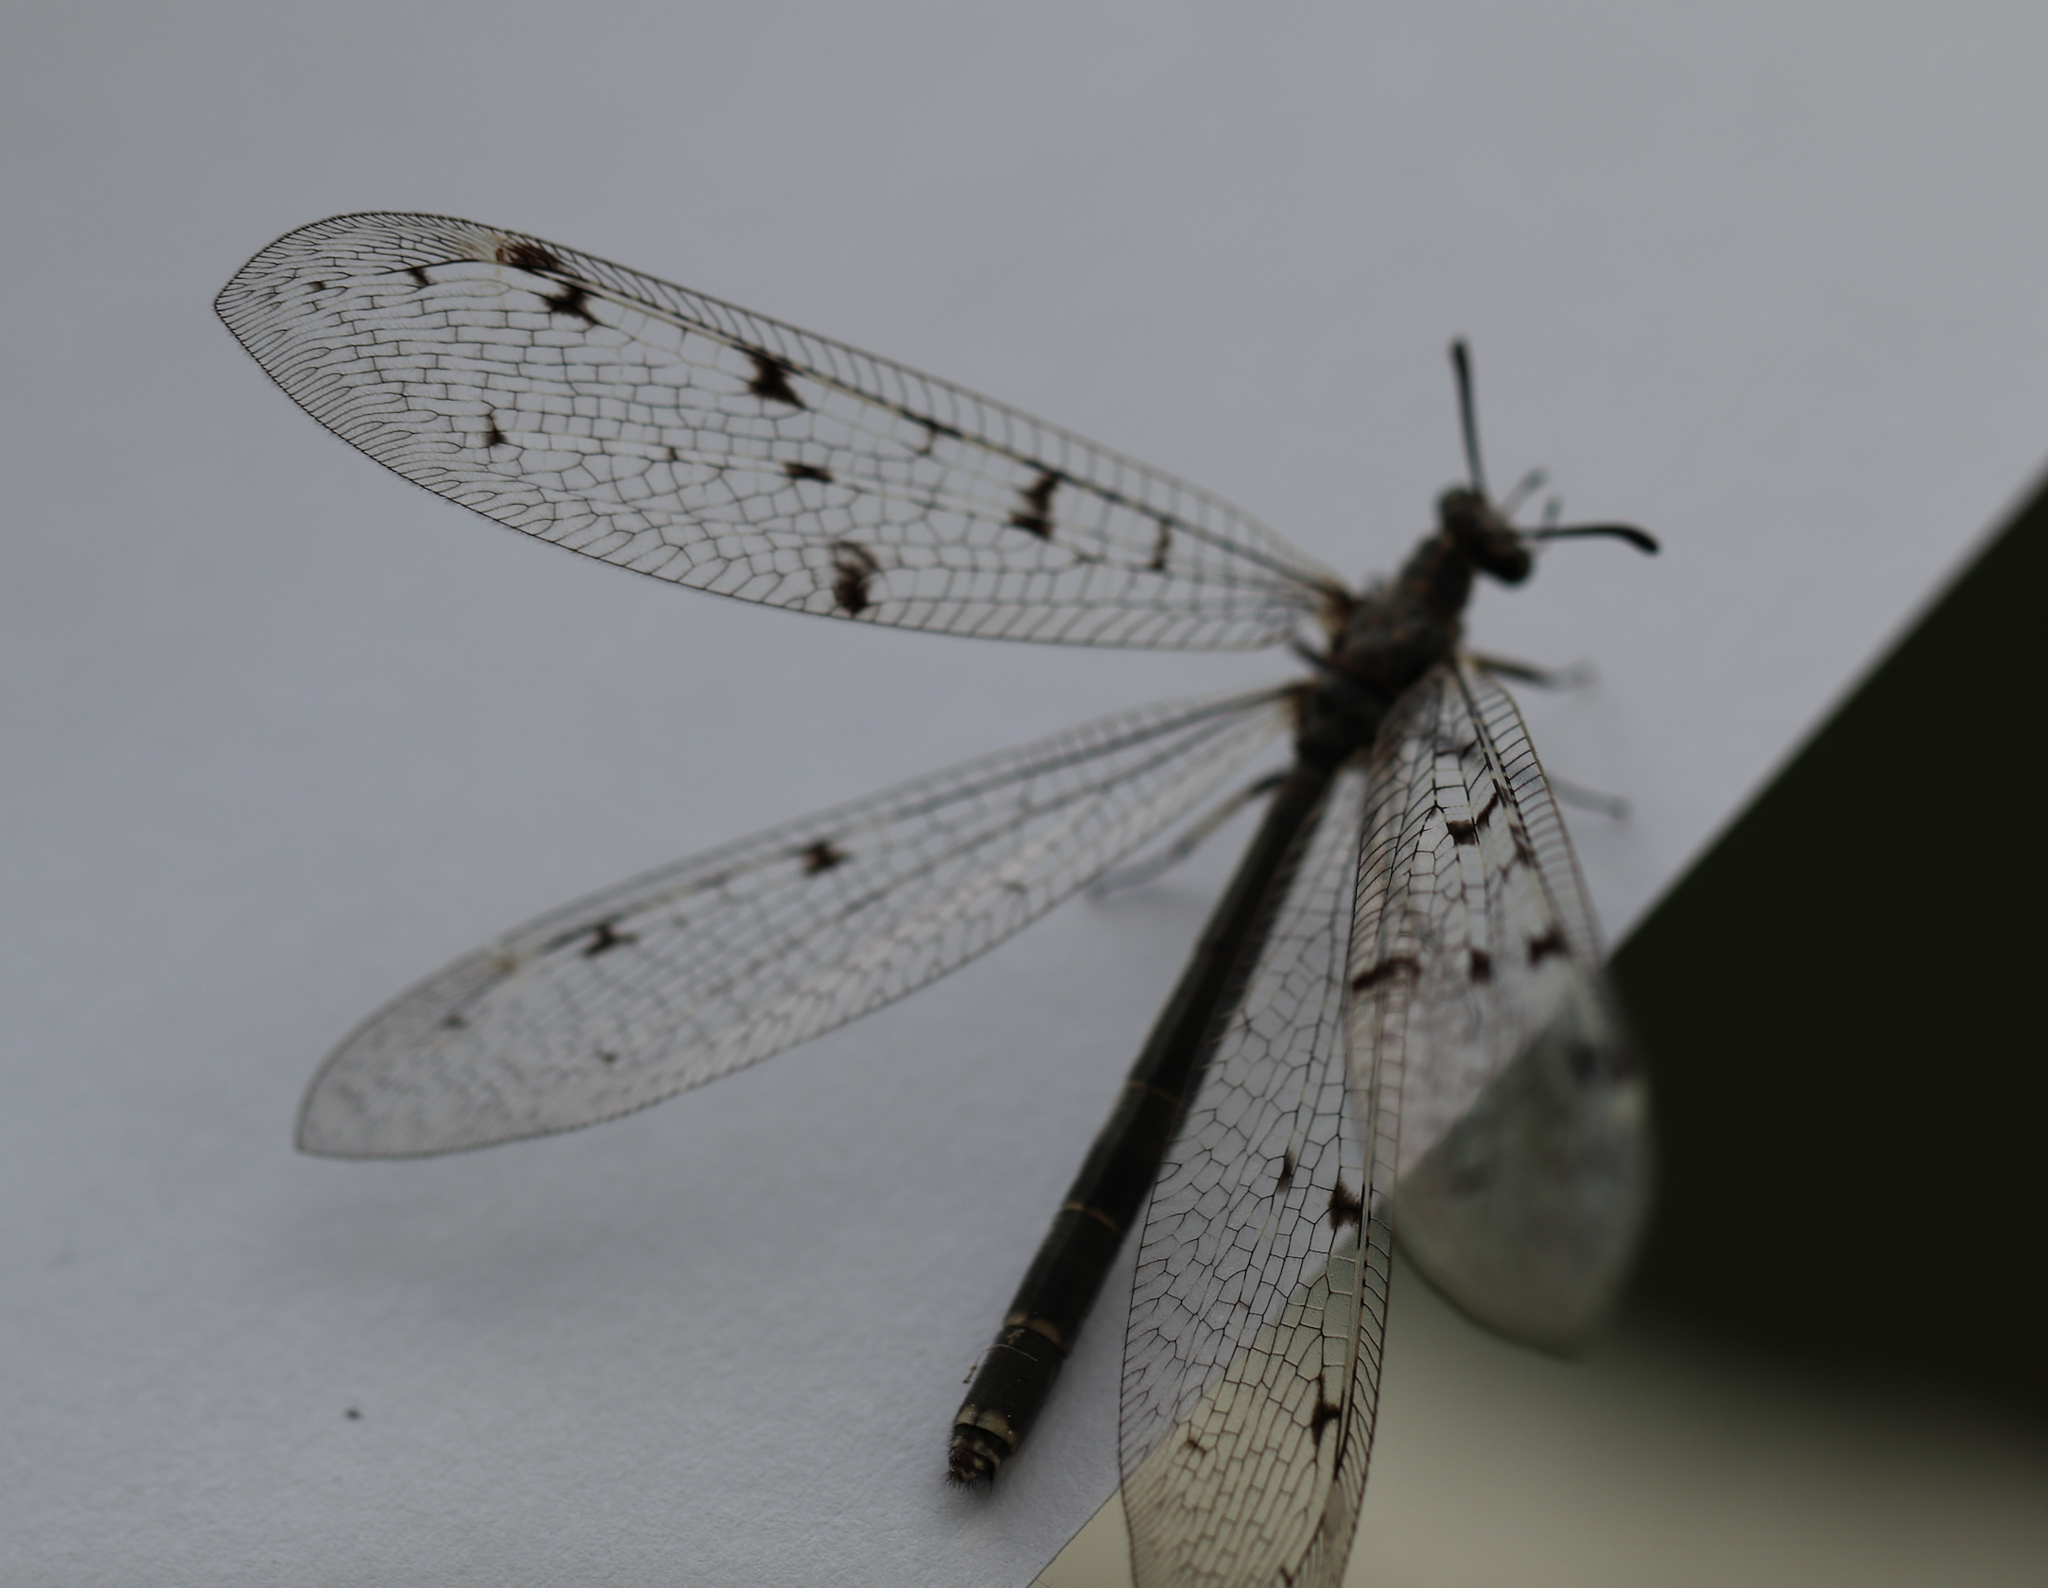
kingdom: Animalia
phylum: Arthropoda
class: Insecta
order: Neuroptera
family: Myrmeleontidae
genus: Euroleon
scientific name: Euroleon nostras
